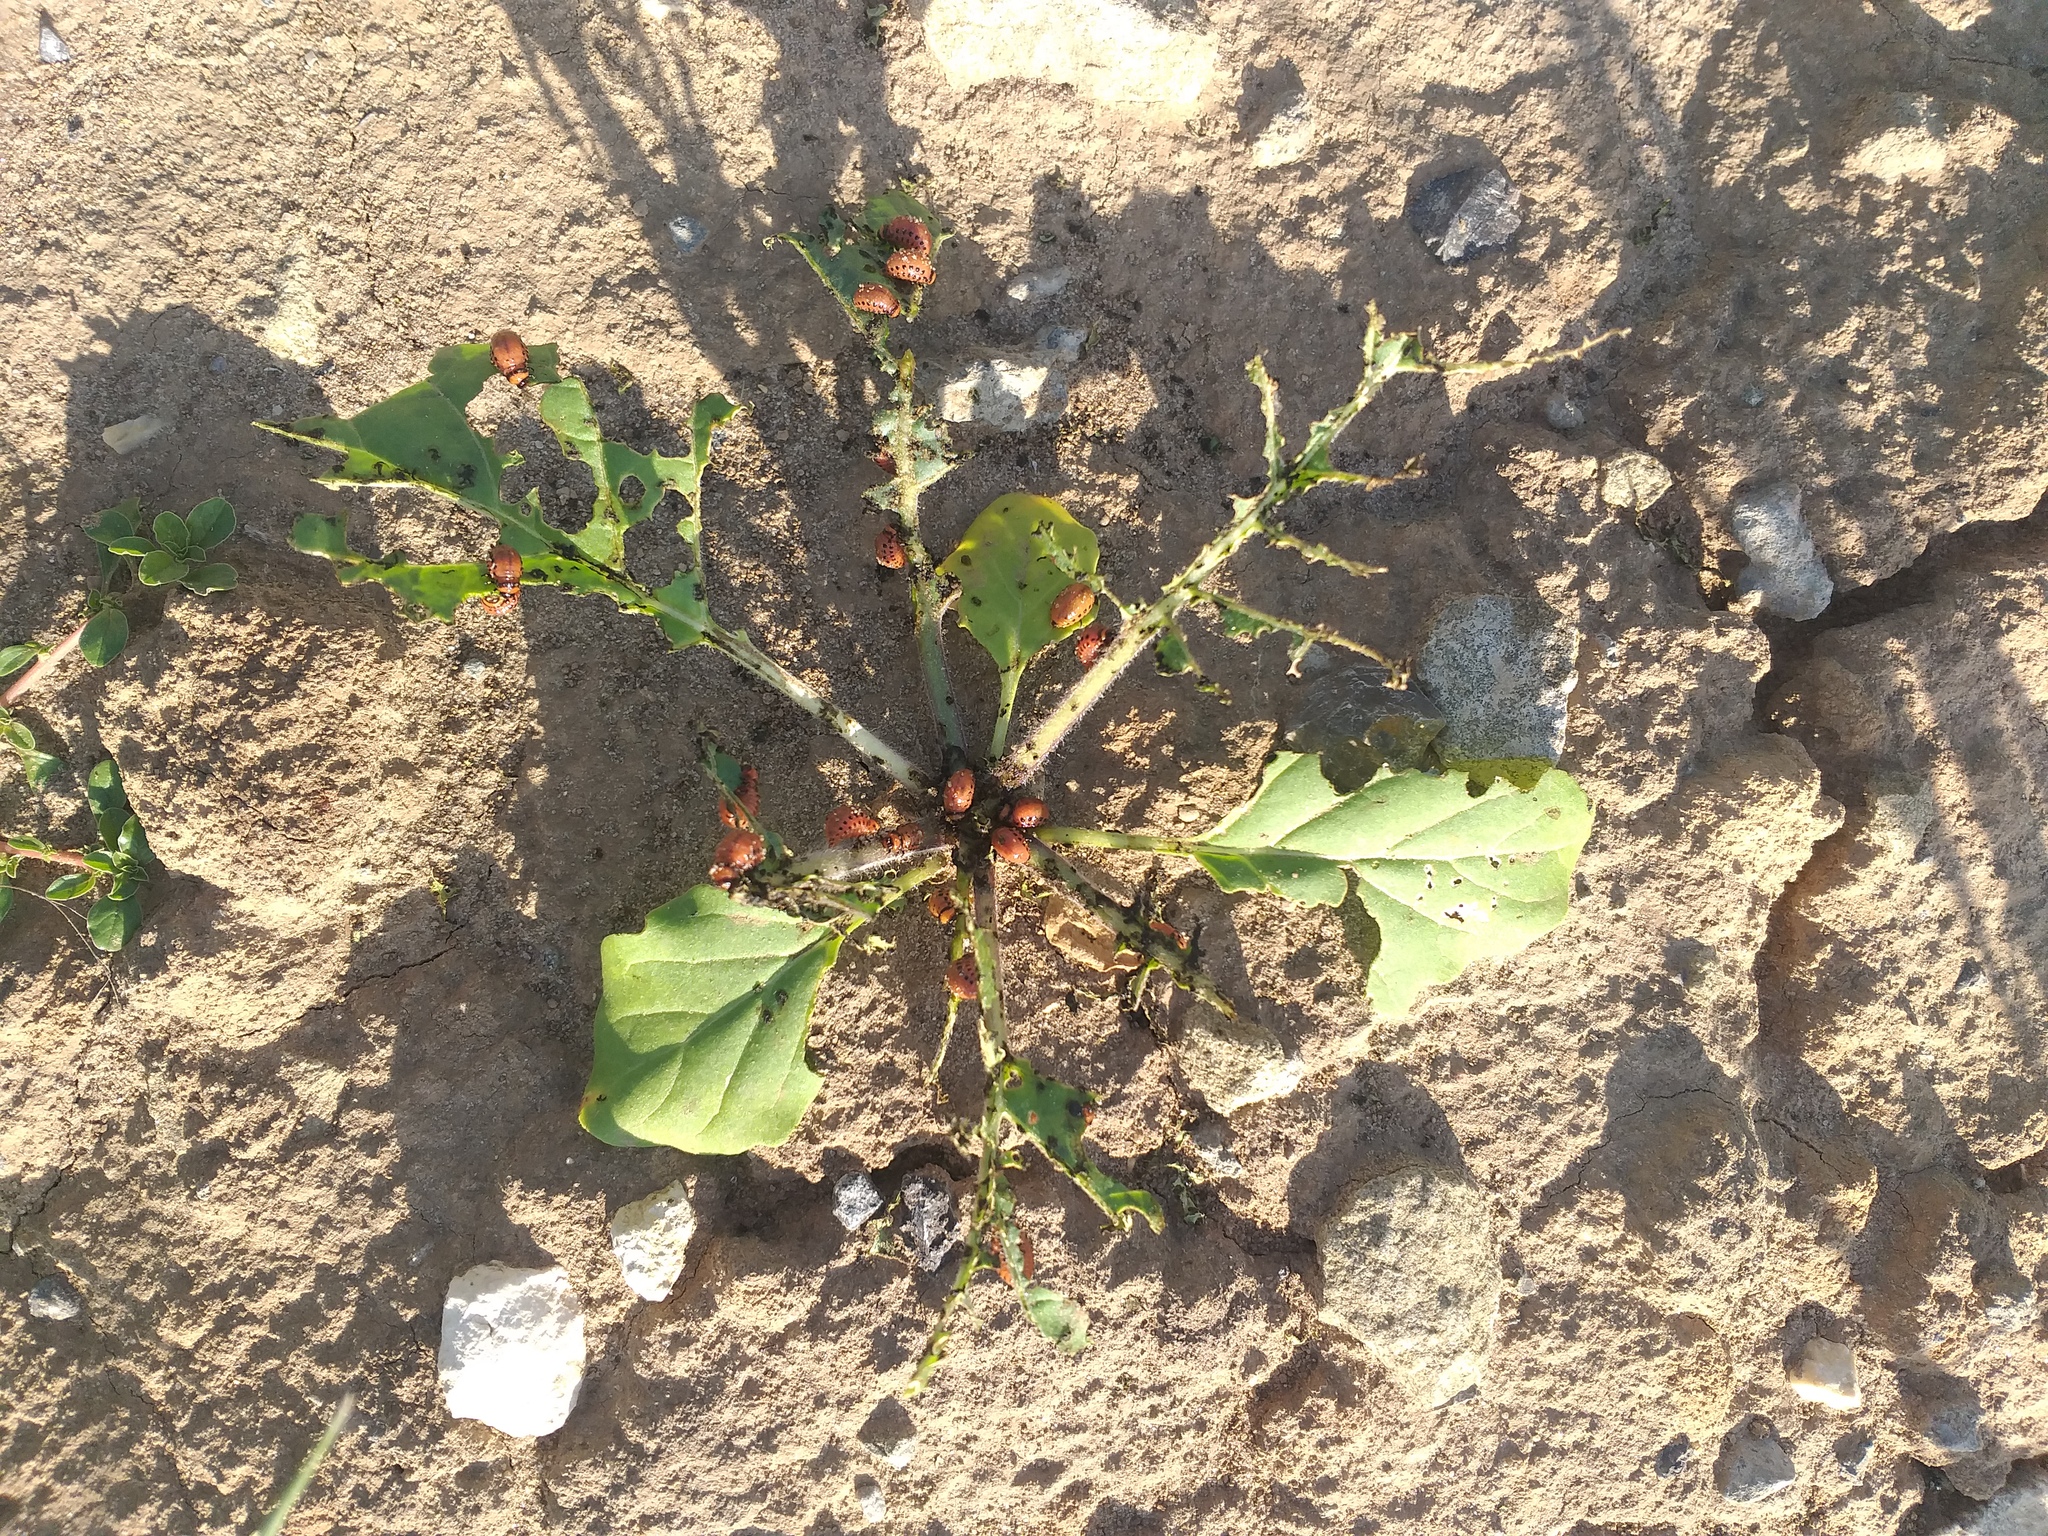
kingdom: Animalia
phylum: Arthropoda
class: Insecta
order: Coleoptera
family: Chrysomelidae
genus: Leptinotarsa
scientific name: Leptinotarsa decemlineata
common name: Colorado potato beetle
